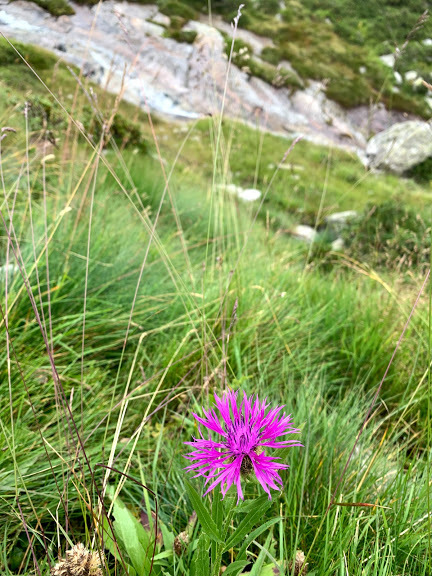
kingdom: Plantae
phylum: Tracheophyta
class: Magnoliopsida
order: Asterales
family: Asteraceae
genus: Centaurea
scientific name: Centaurea nervosa
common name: Singleflower knapweed
